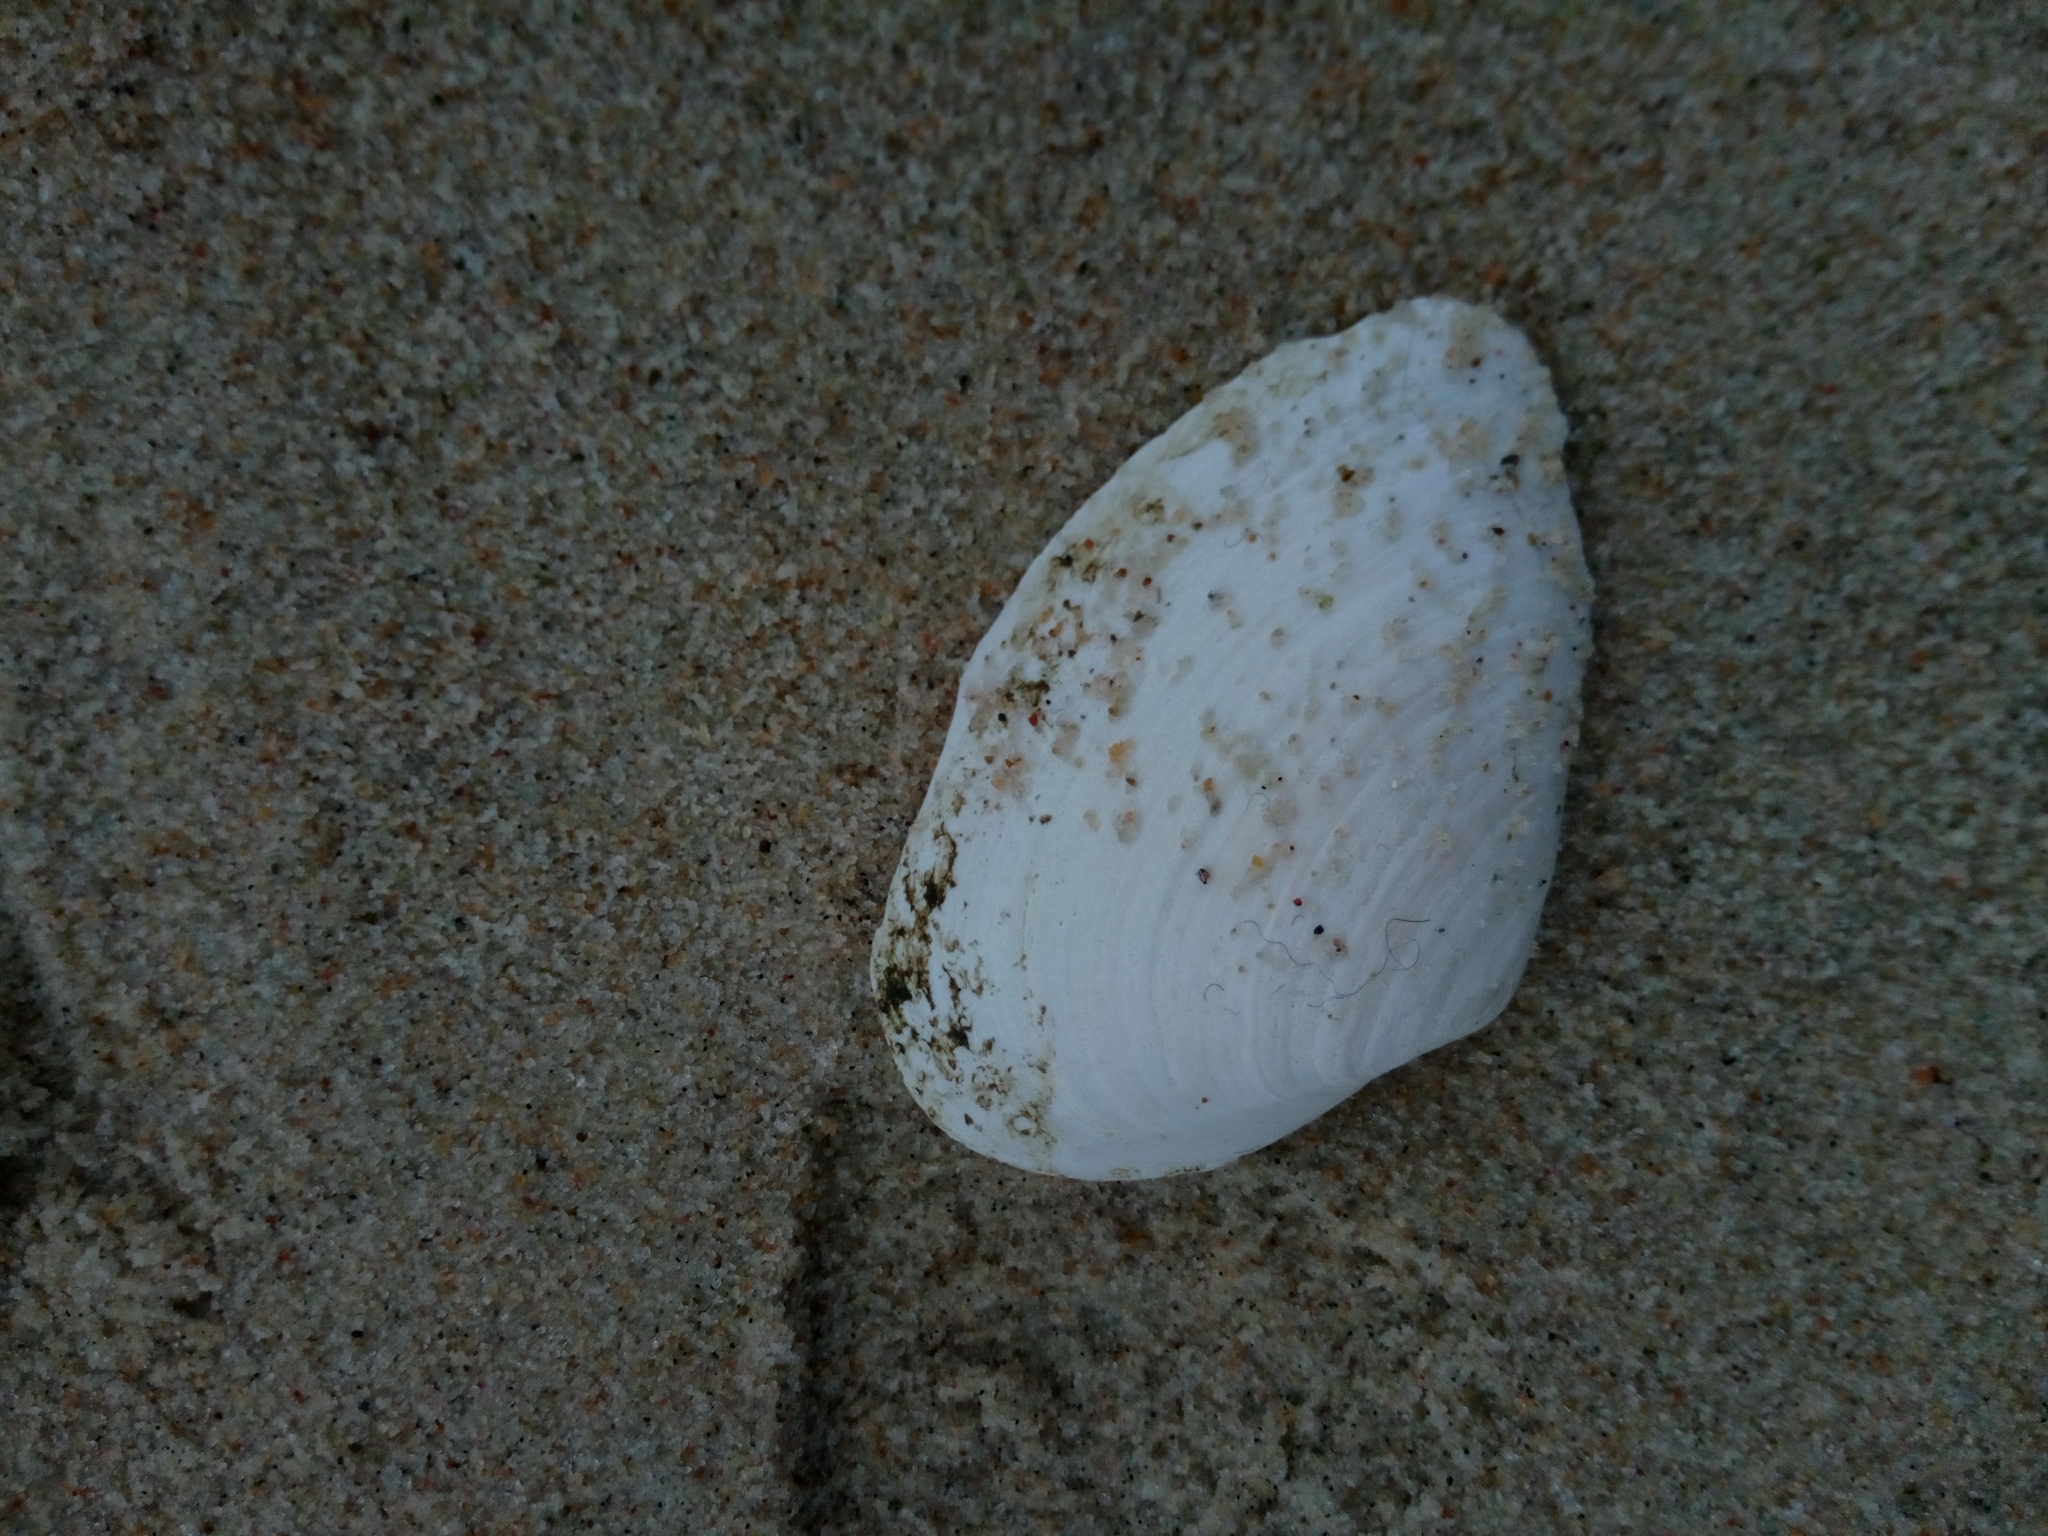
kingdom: Animalia
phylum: Mollusca
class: Bivalvia
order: Myida
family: Myidae
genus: Mya
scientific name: Mya arenaria
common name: Soft-shelled clam
